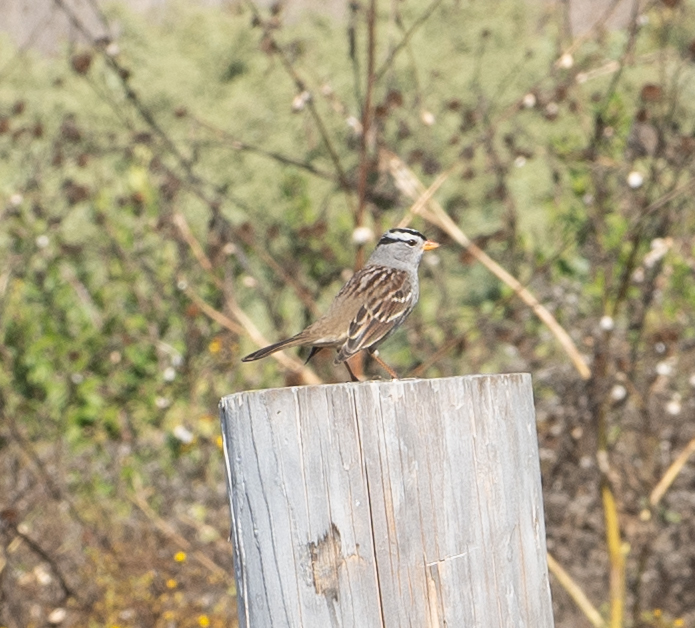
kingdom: Animalia
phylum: Chordata
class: Aves
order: Passeriformes
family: Passerellidae
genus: Zonotrichia
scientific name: Zonotrichia leucophrys
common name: White-crowned sparrow
